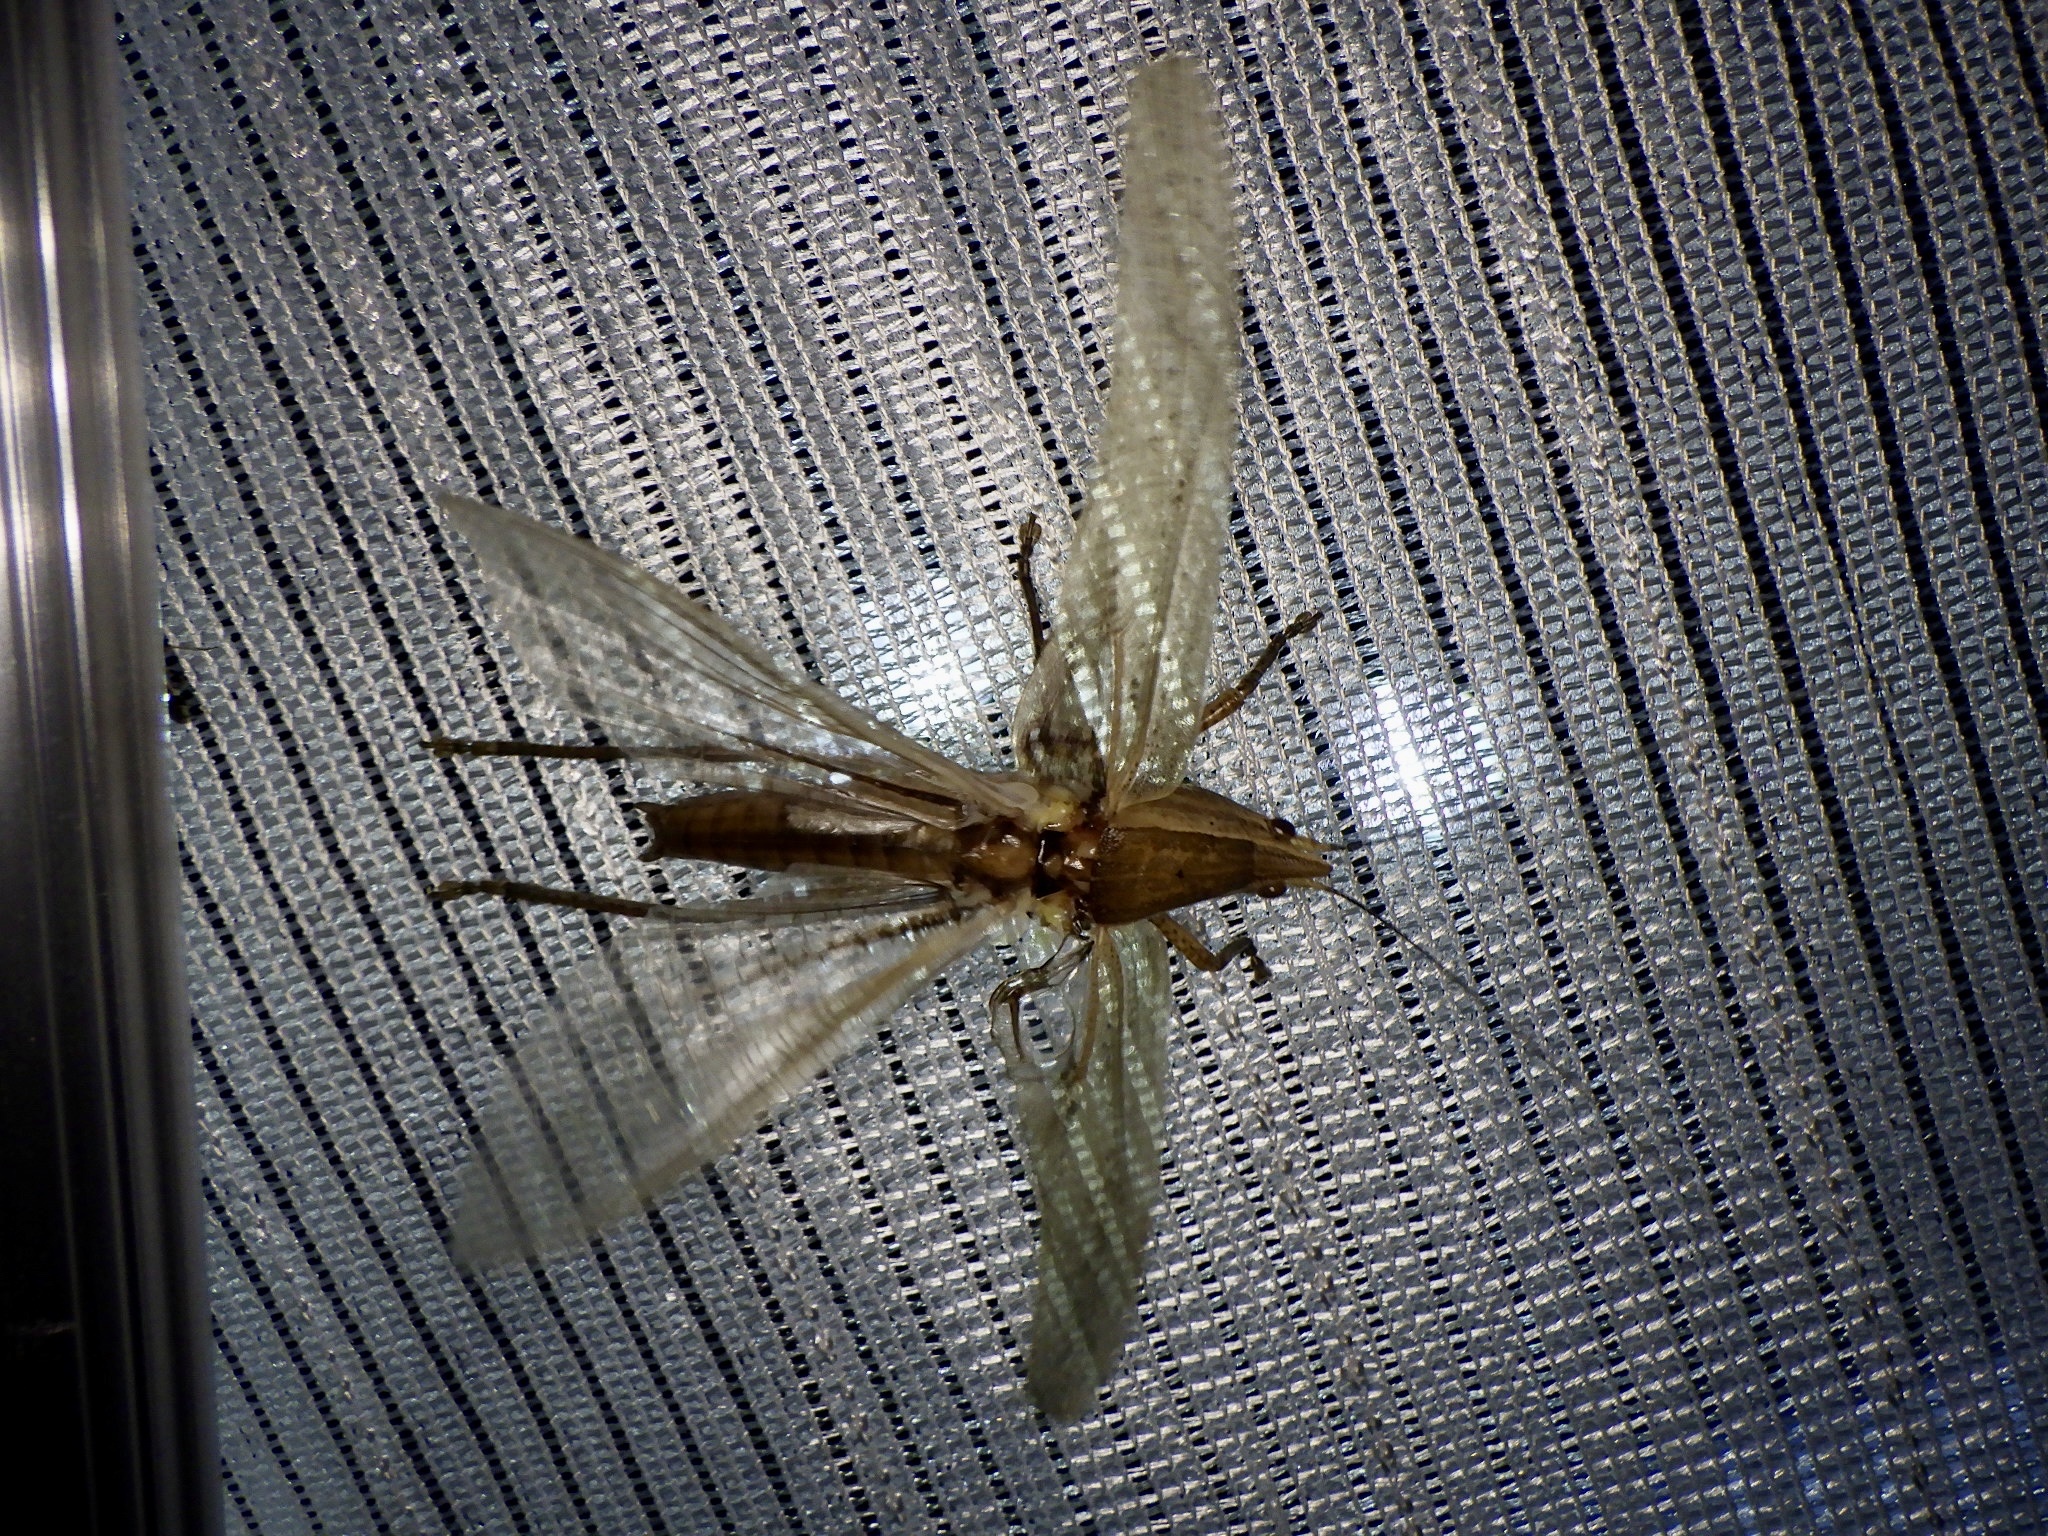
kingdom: Animalia
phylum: Arthropoda
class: Insecta
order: Orthoptera
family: Tettigoniidae
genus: Xestophrys
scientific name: Xestophrys javanicus
